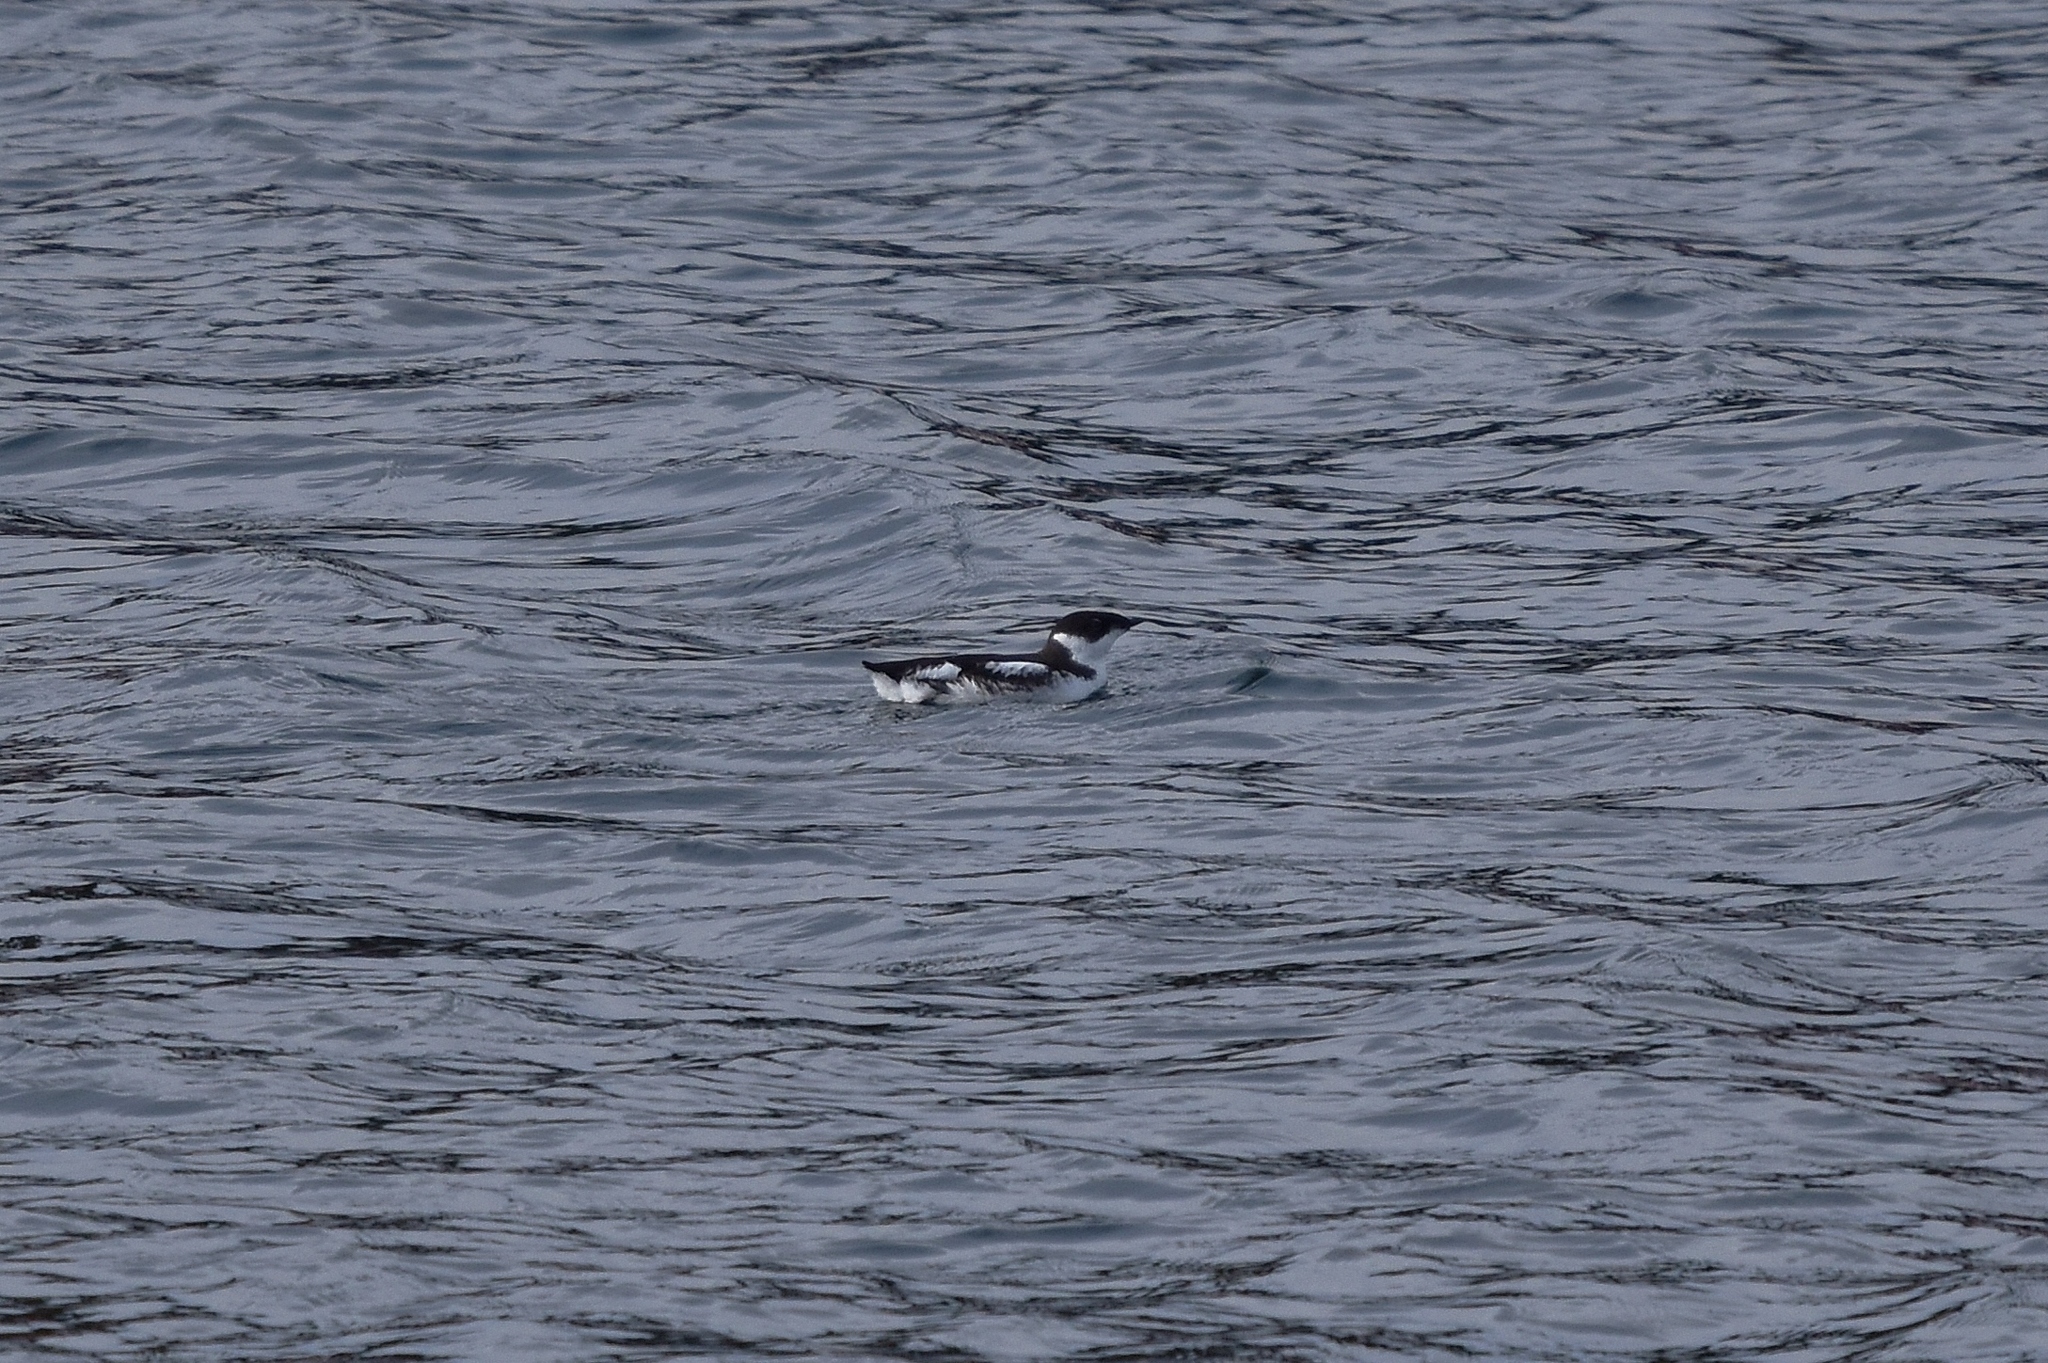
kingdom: Animalia
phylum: Chordata
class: Aves
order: Charadriiformes
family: Alcidae
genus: Brachyramphus
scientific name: Brachyramphus marmoratus
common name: Marbled murrelet
